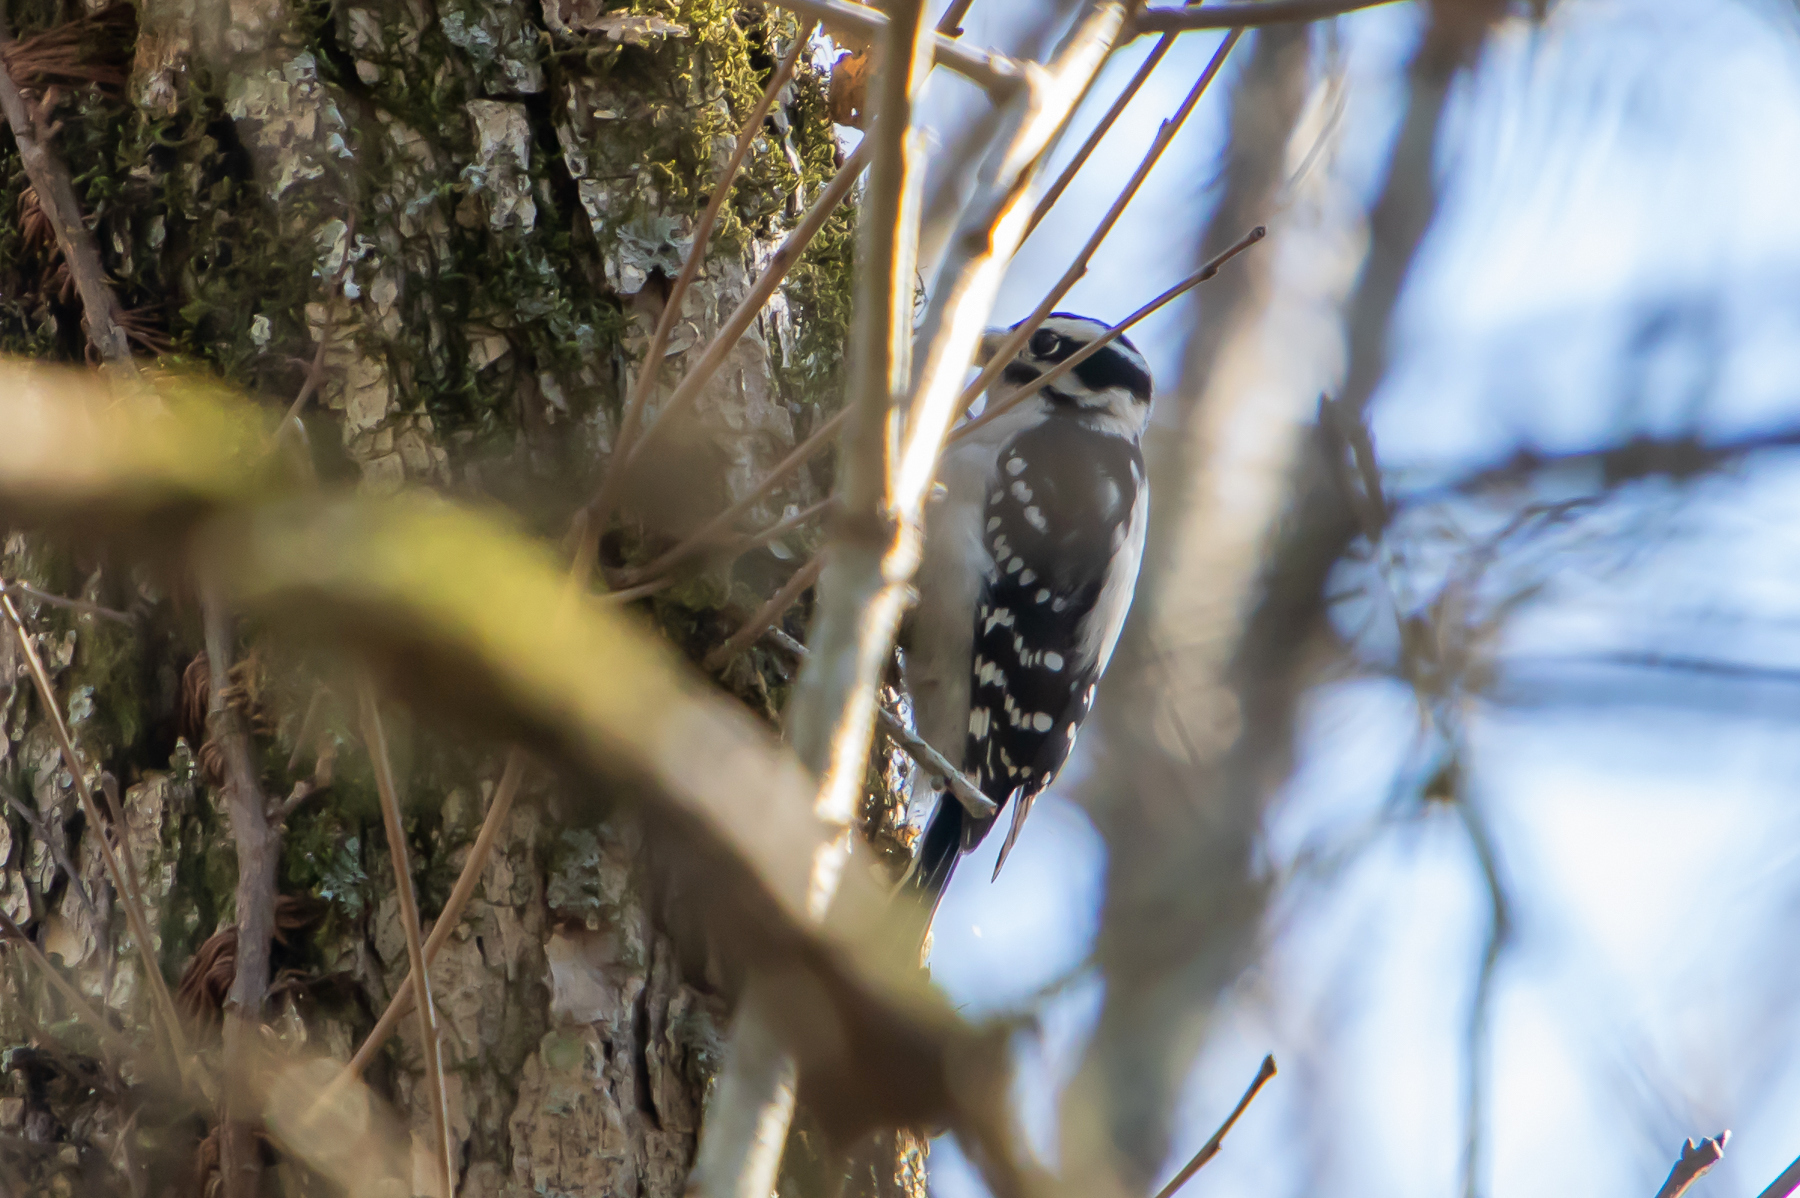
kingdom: Animalia
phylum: Chordata
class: Aves
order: Piciformes
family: Picidae
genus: Dryobates
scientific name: Dryobates pubescens
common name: Downy woodpecker
